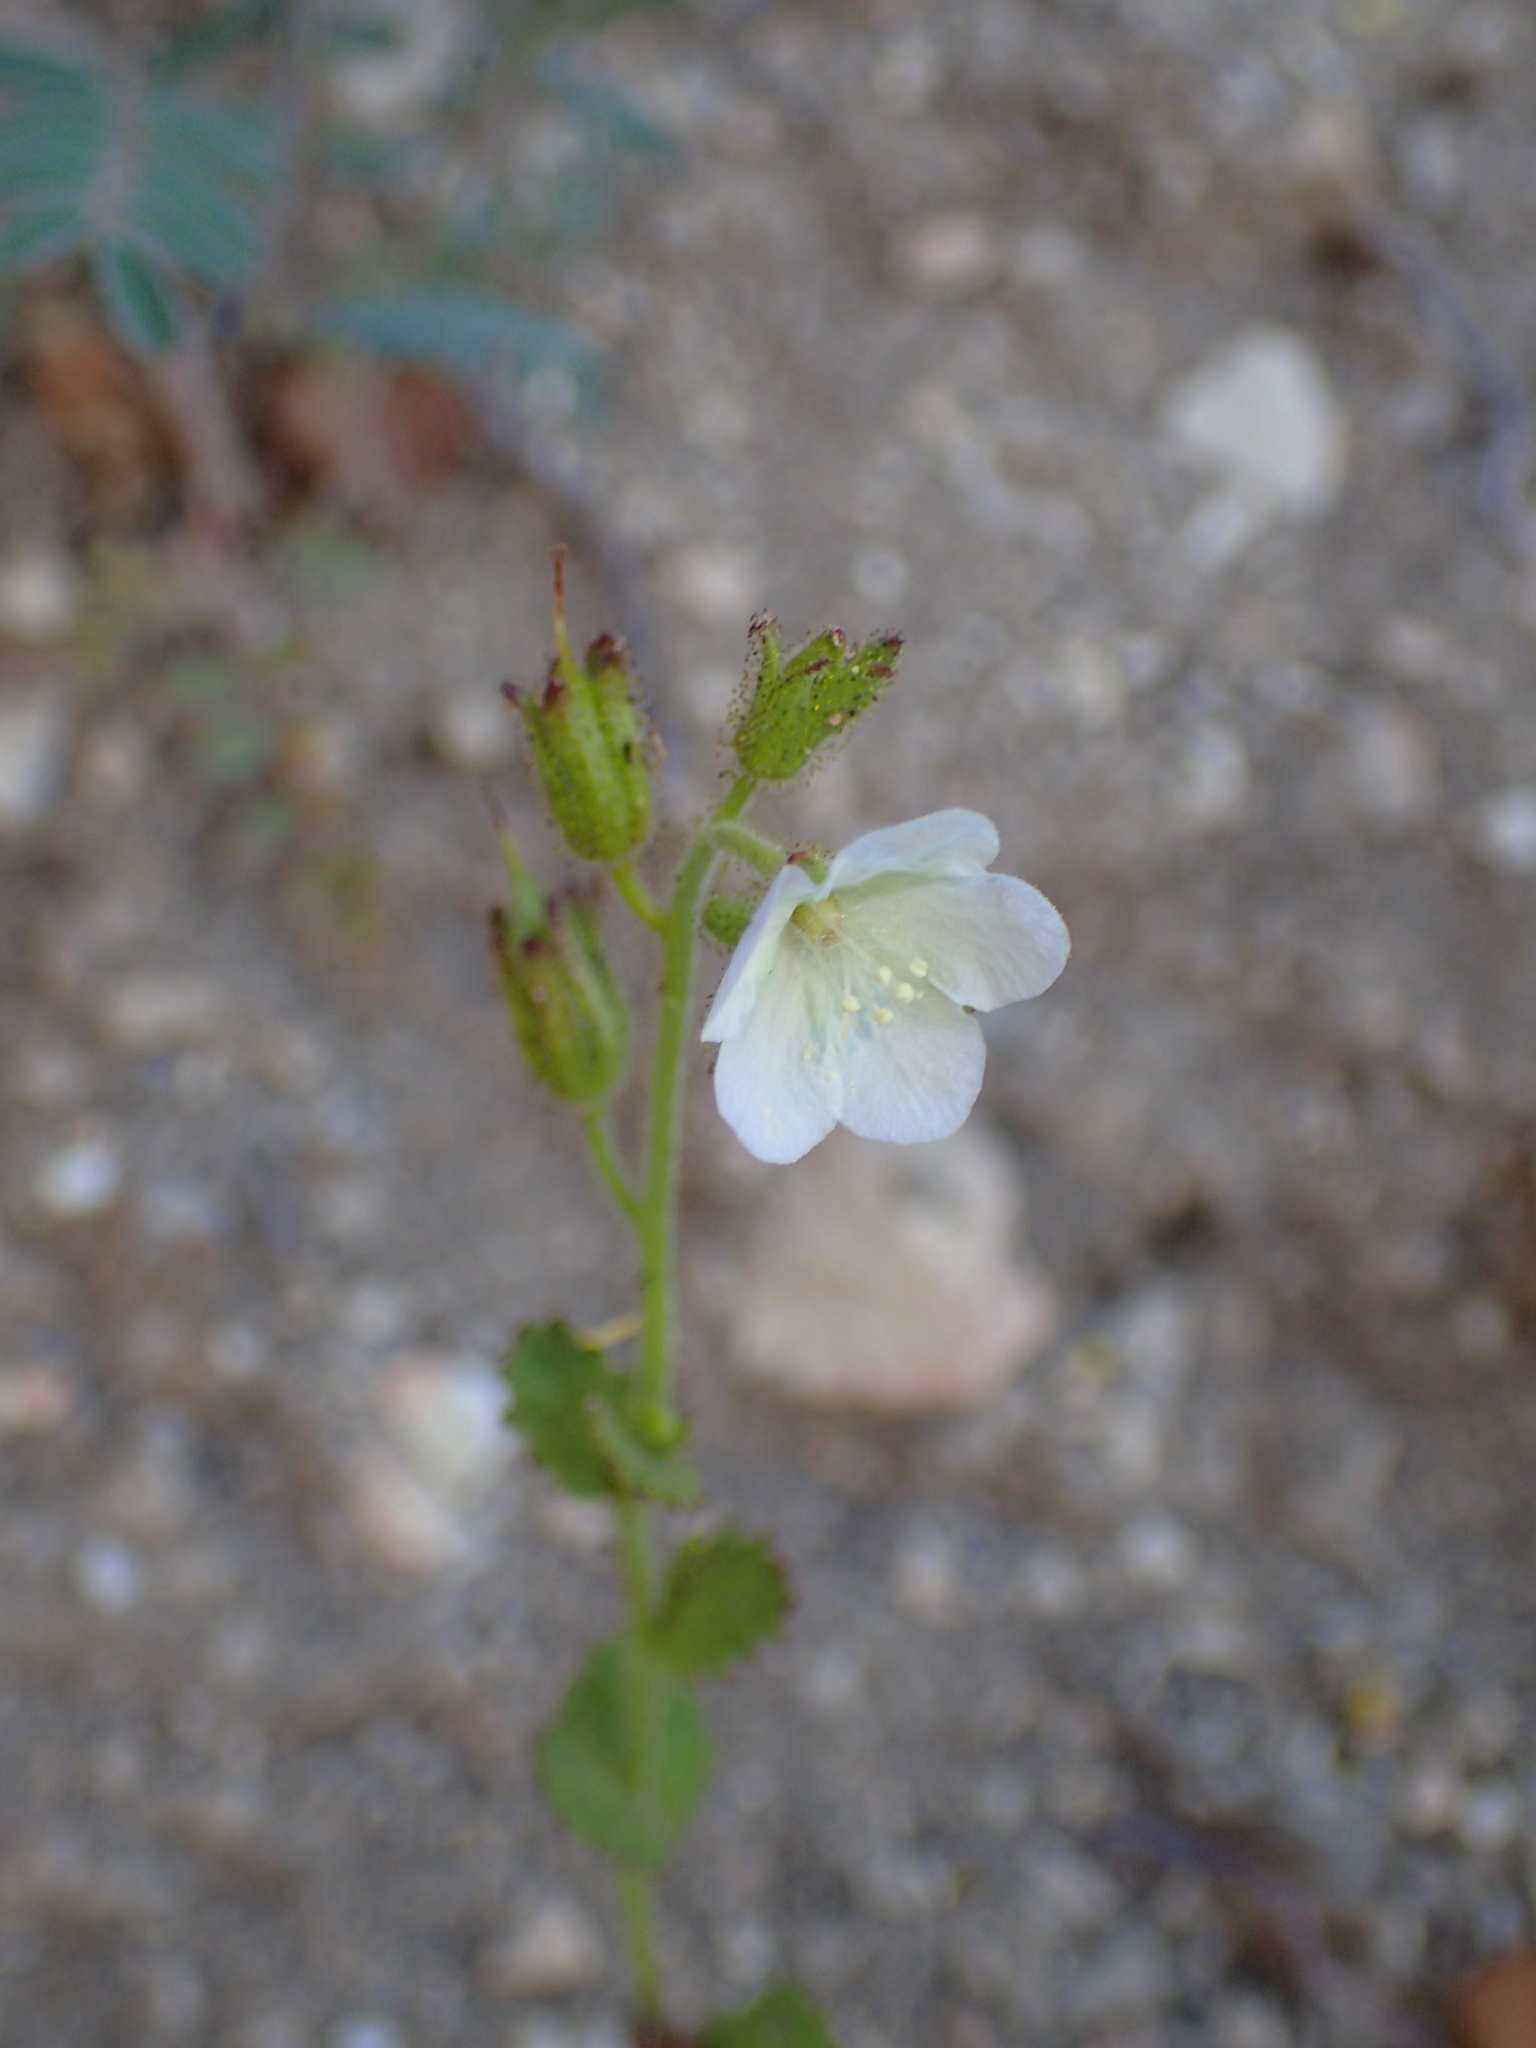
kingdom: Plantae
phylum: Tracheophyta
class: Magnoliopsida
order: Boraginales
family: Hydrophyllaceae
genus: Phacelia
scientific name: Phacelia viscida
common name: Sticky phacelia
